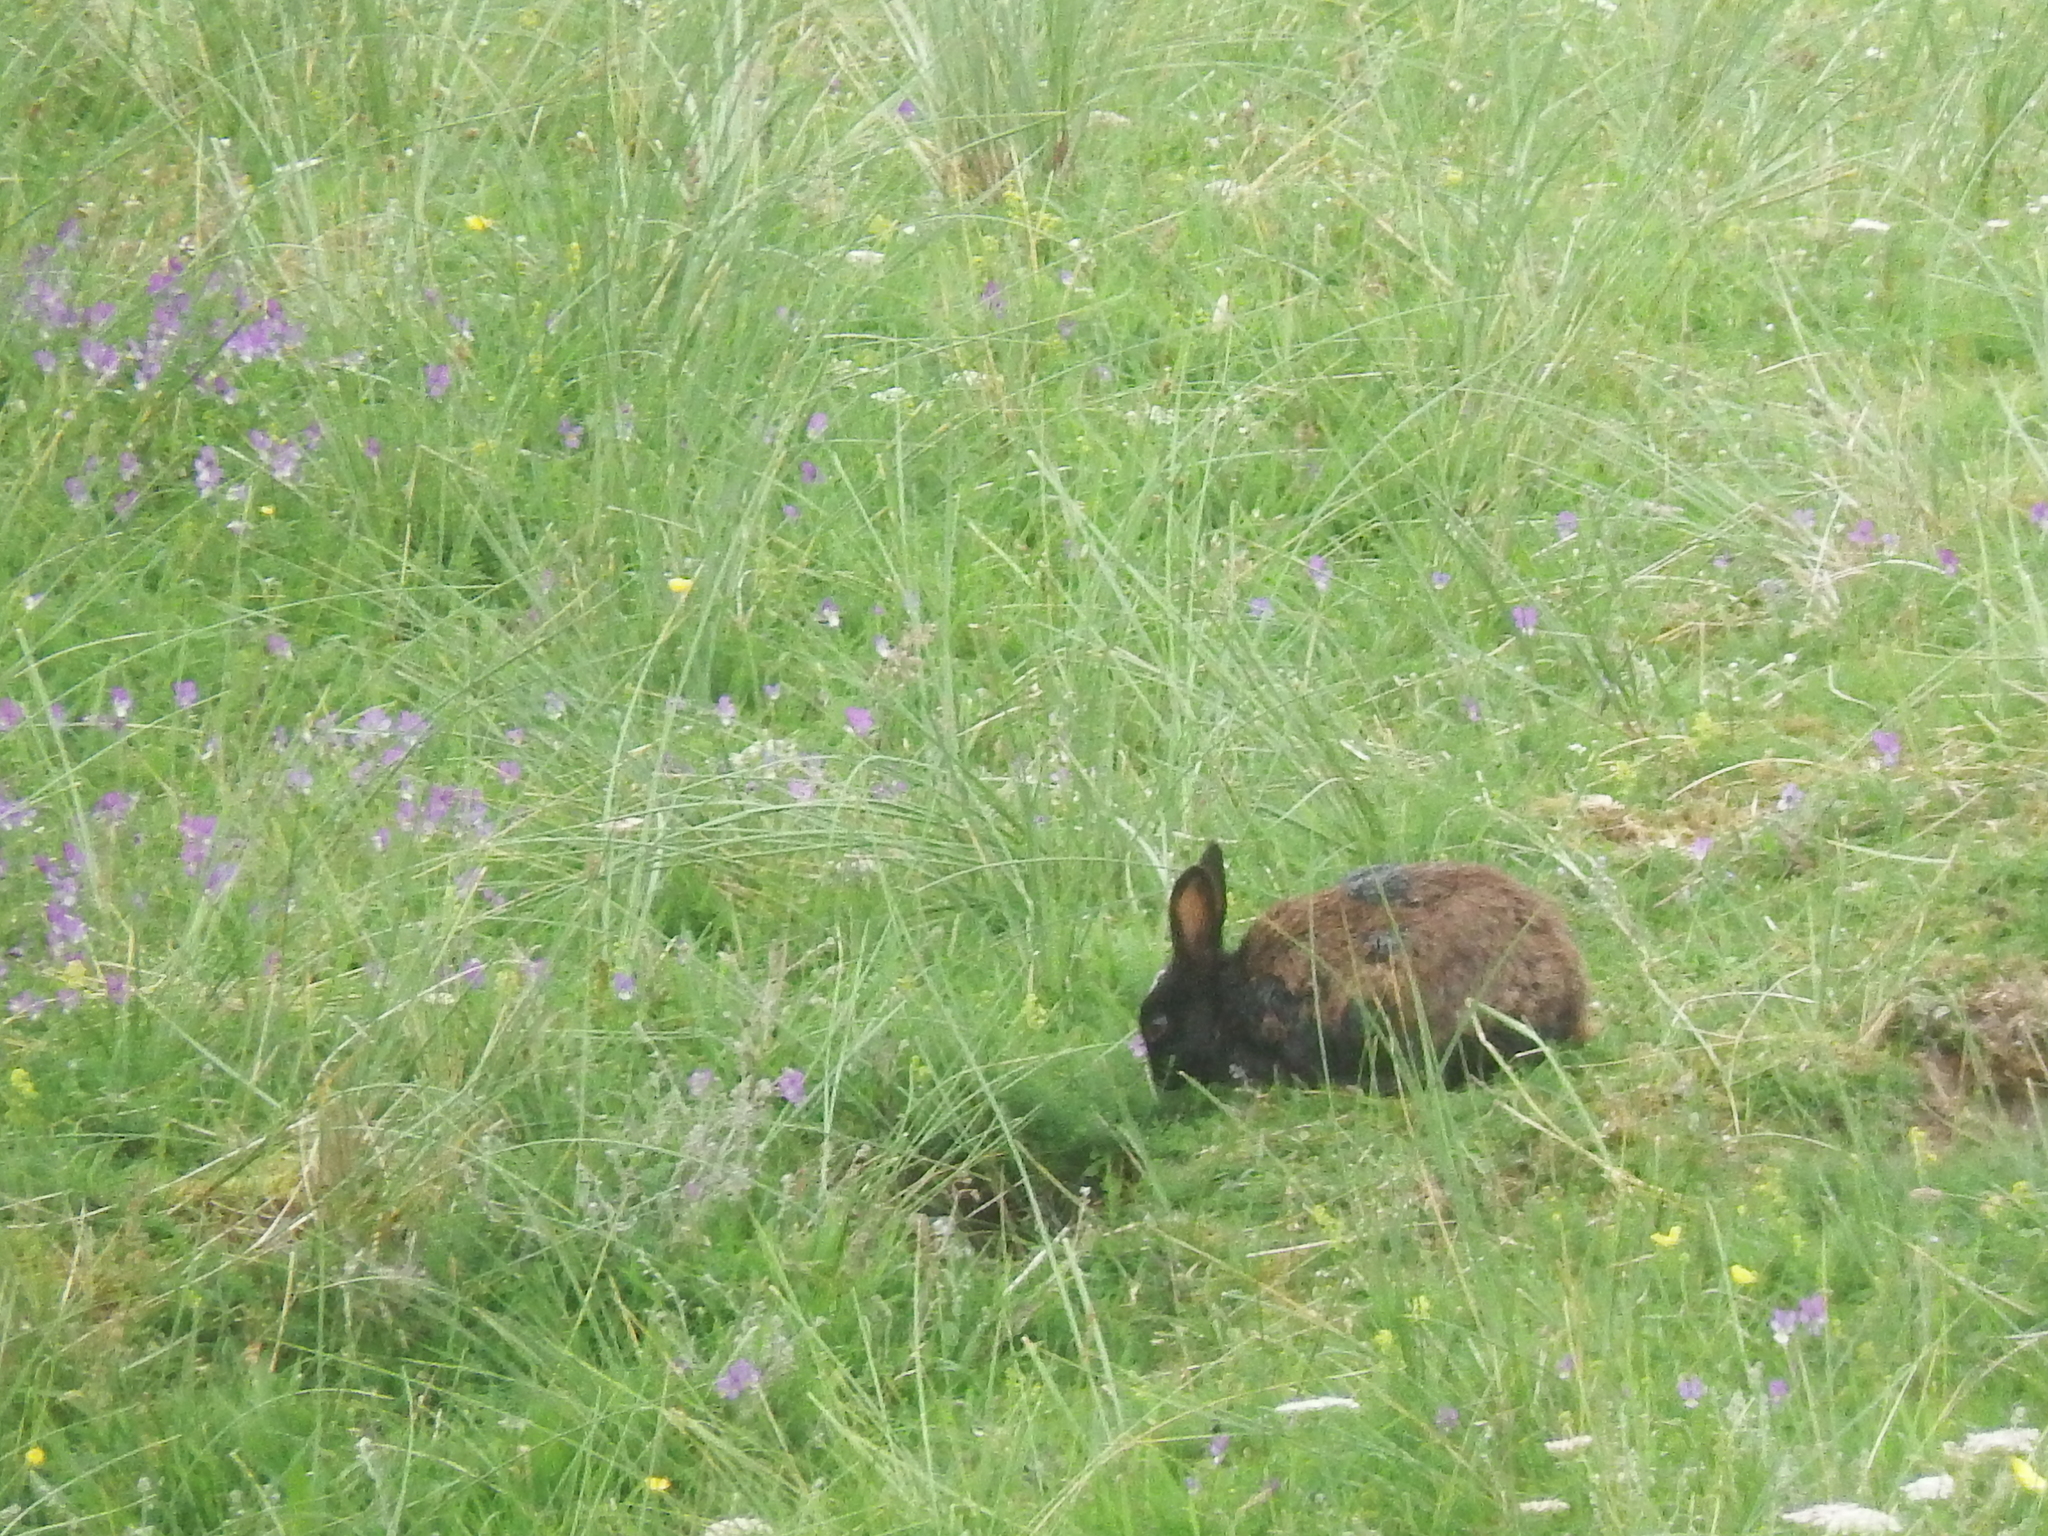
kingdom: Animalia
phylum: Chordata
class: Mammalia
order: Lagomorpha
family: Leporidae
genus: Oryctolagus
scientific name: Oryctolagus cuniculus
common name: European rabbit
